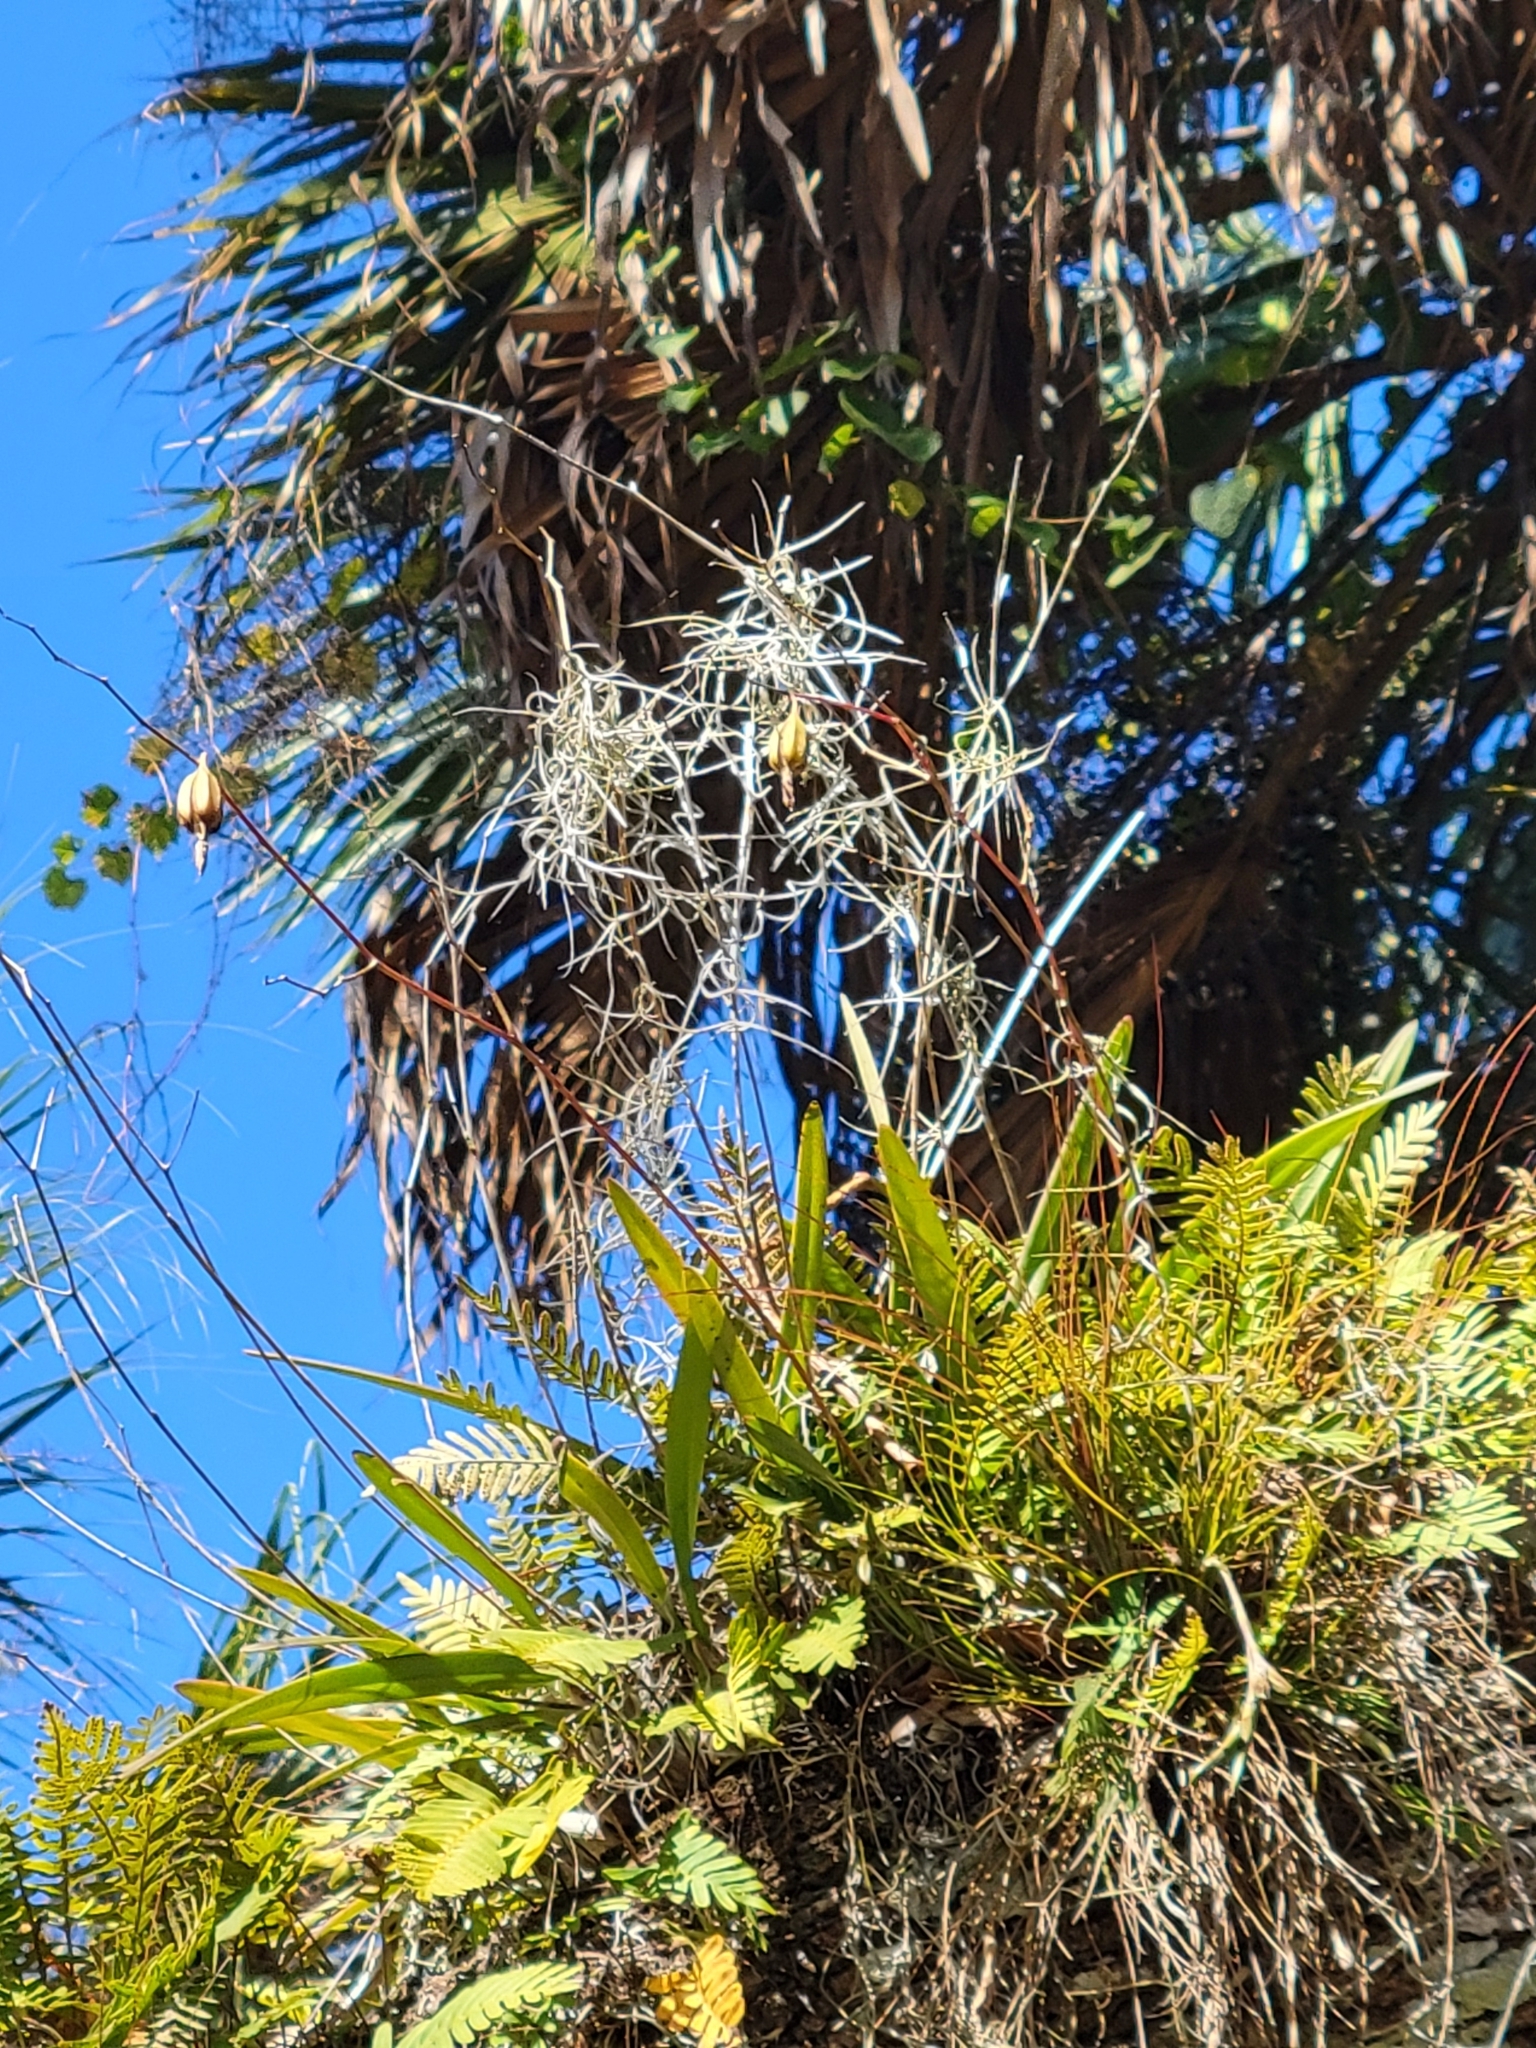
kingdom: Plantae
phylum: Tracheophyta
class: Liliopsida
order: Asparagales
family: Orchidaceae
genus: Encyclia
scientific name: Encyclia tampensis
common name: Florida butterfly orchid
